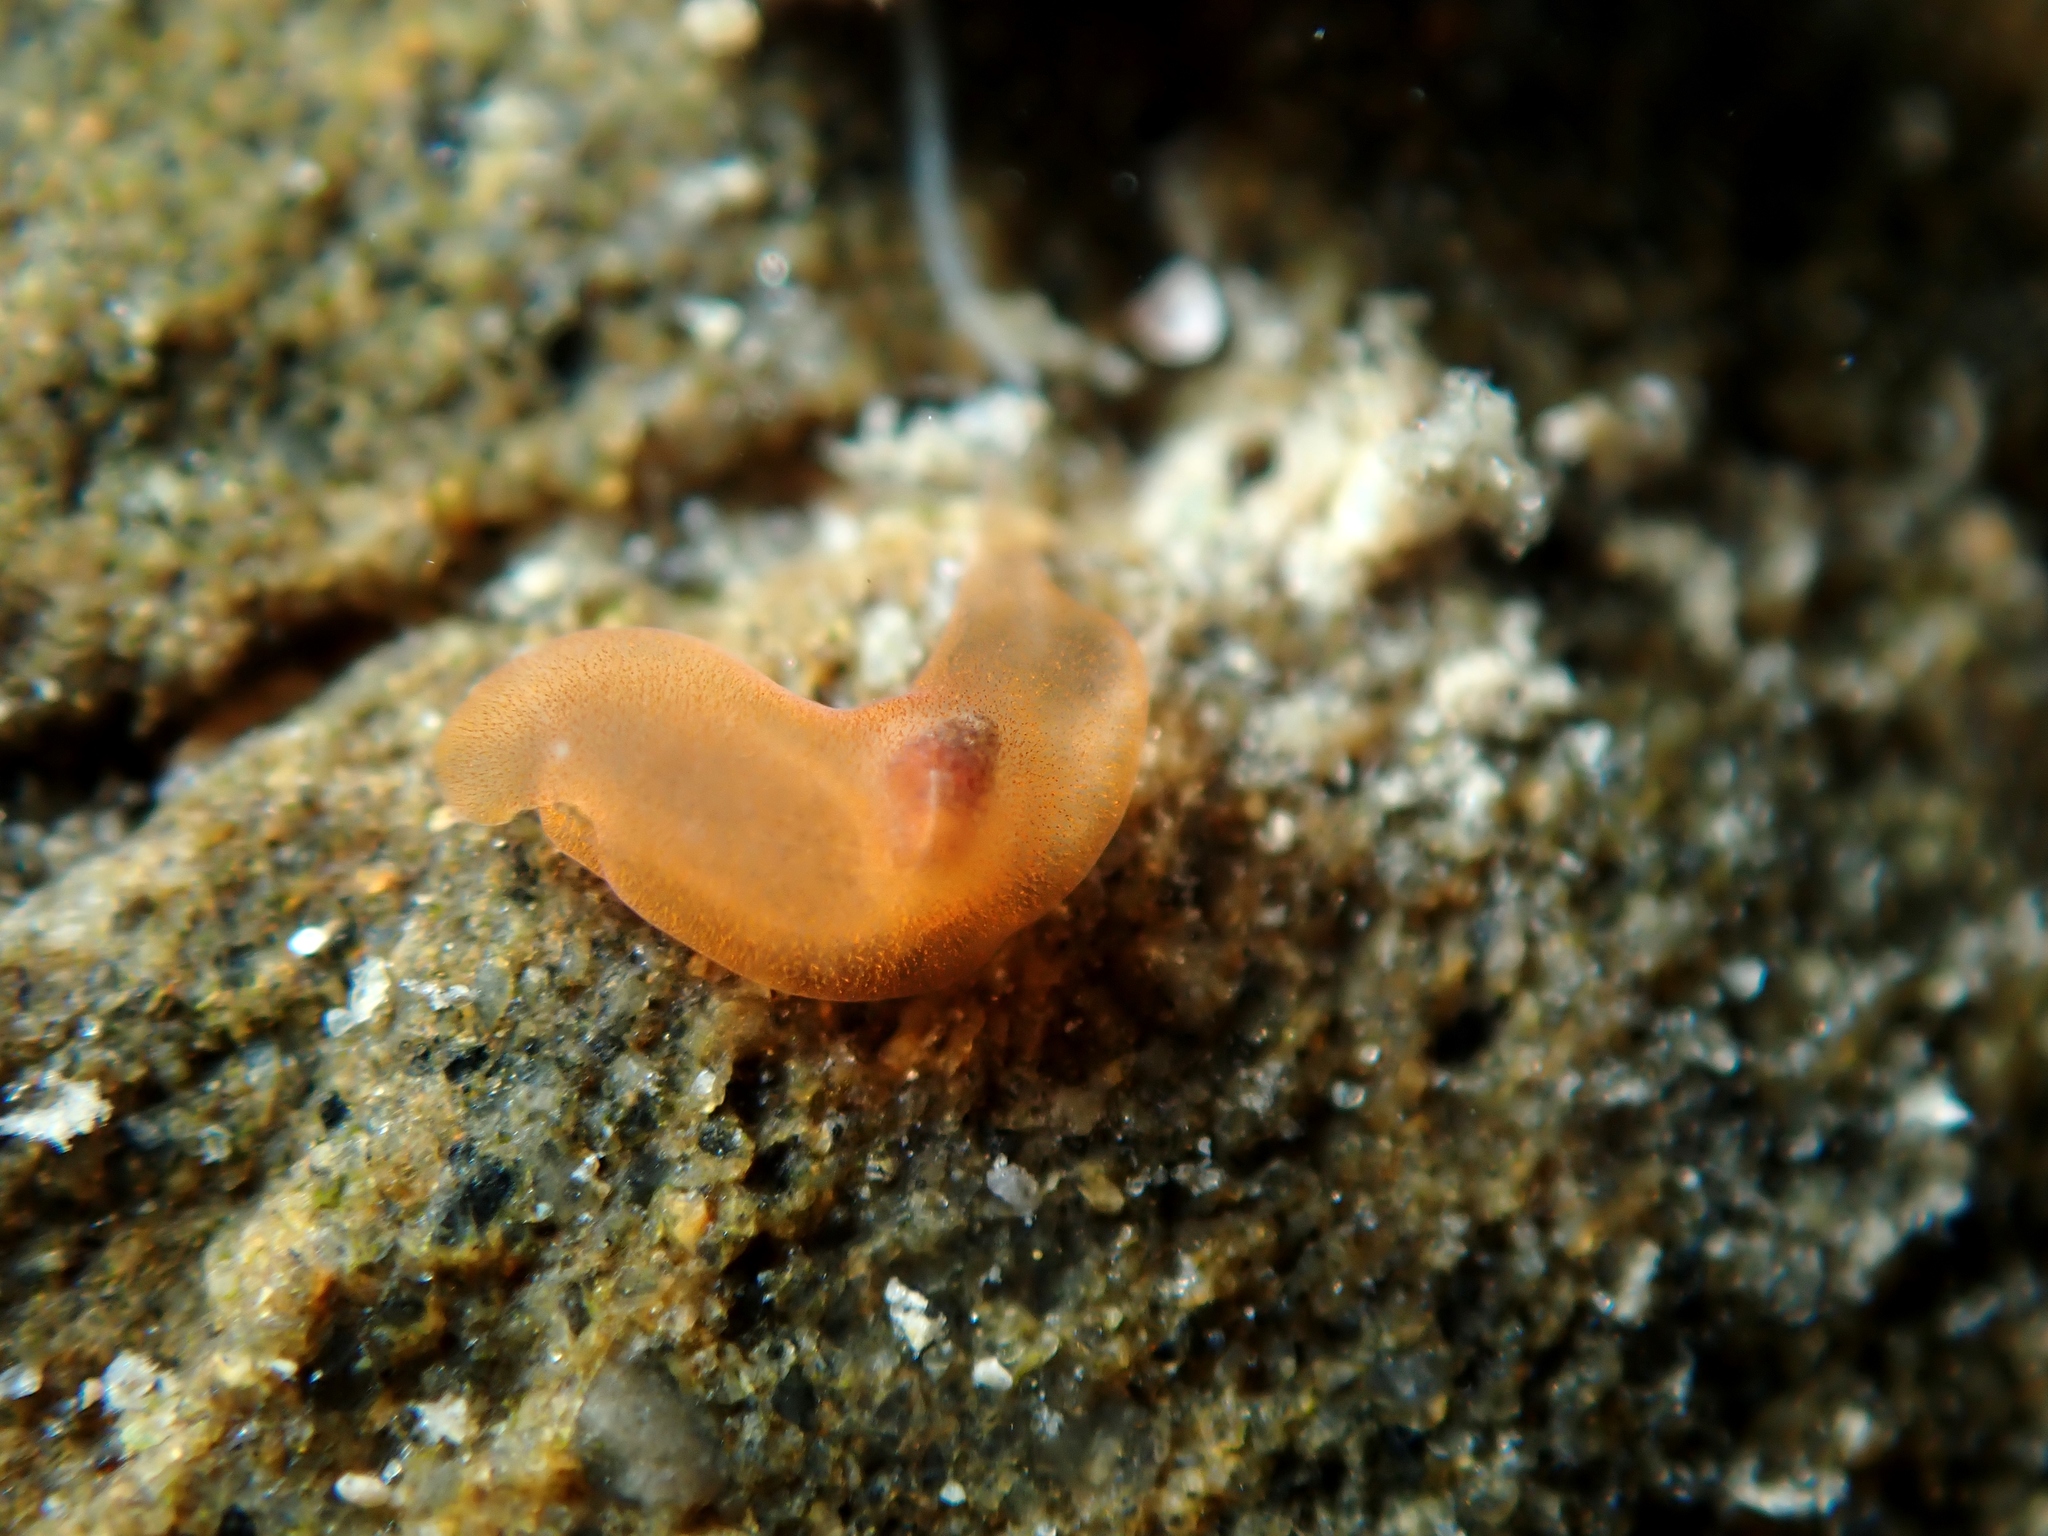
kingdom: Animalia
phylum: Xenacoelomorpha
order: Acoela
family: Convolutidae
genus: Polychoerus
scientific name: Polychoerus gordoni
